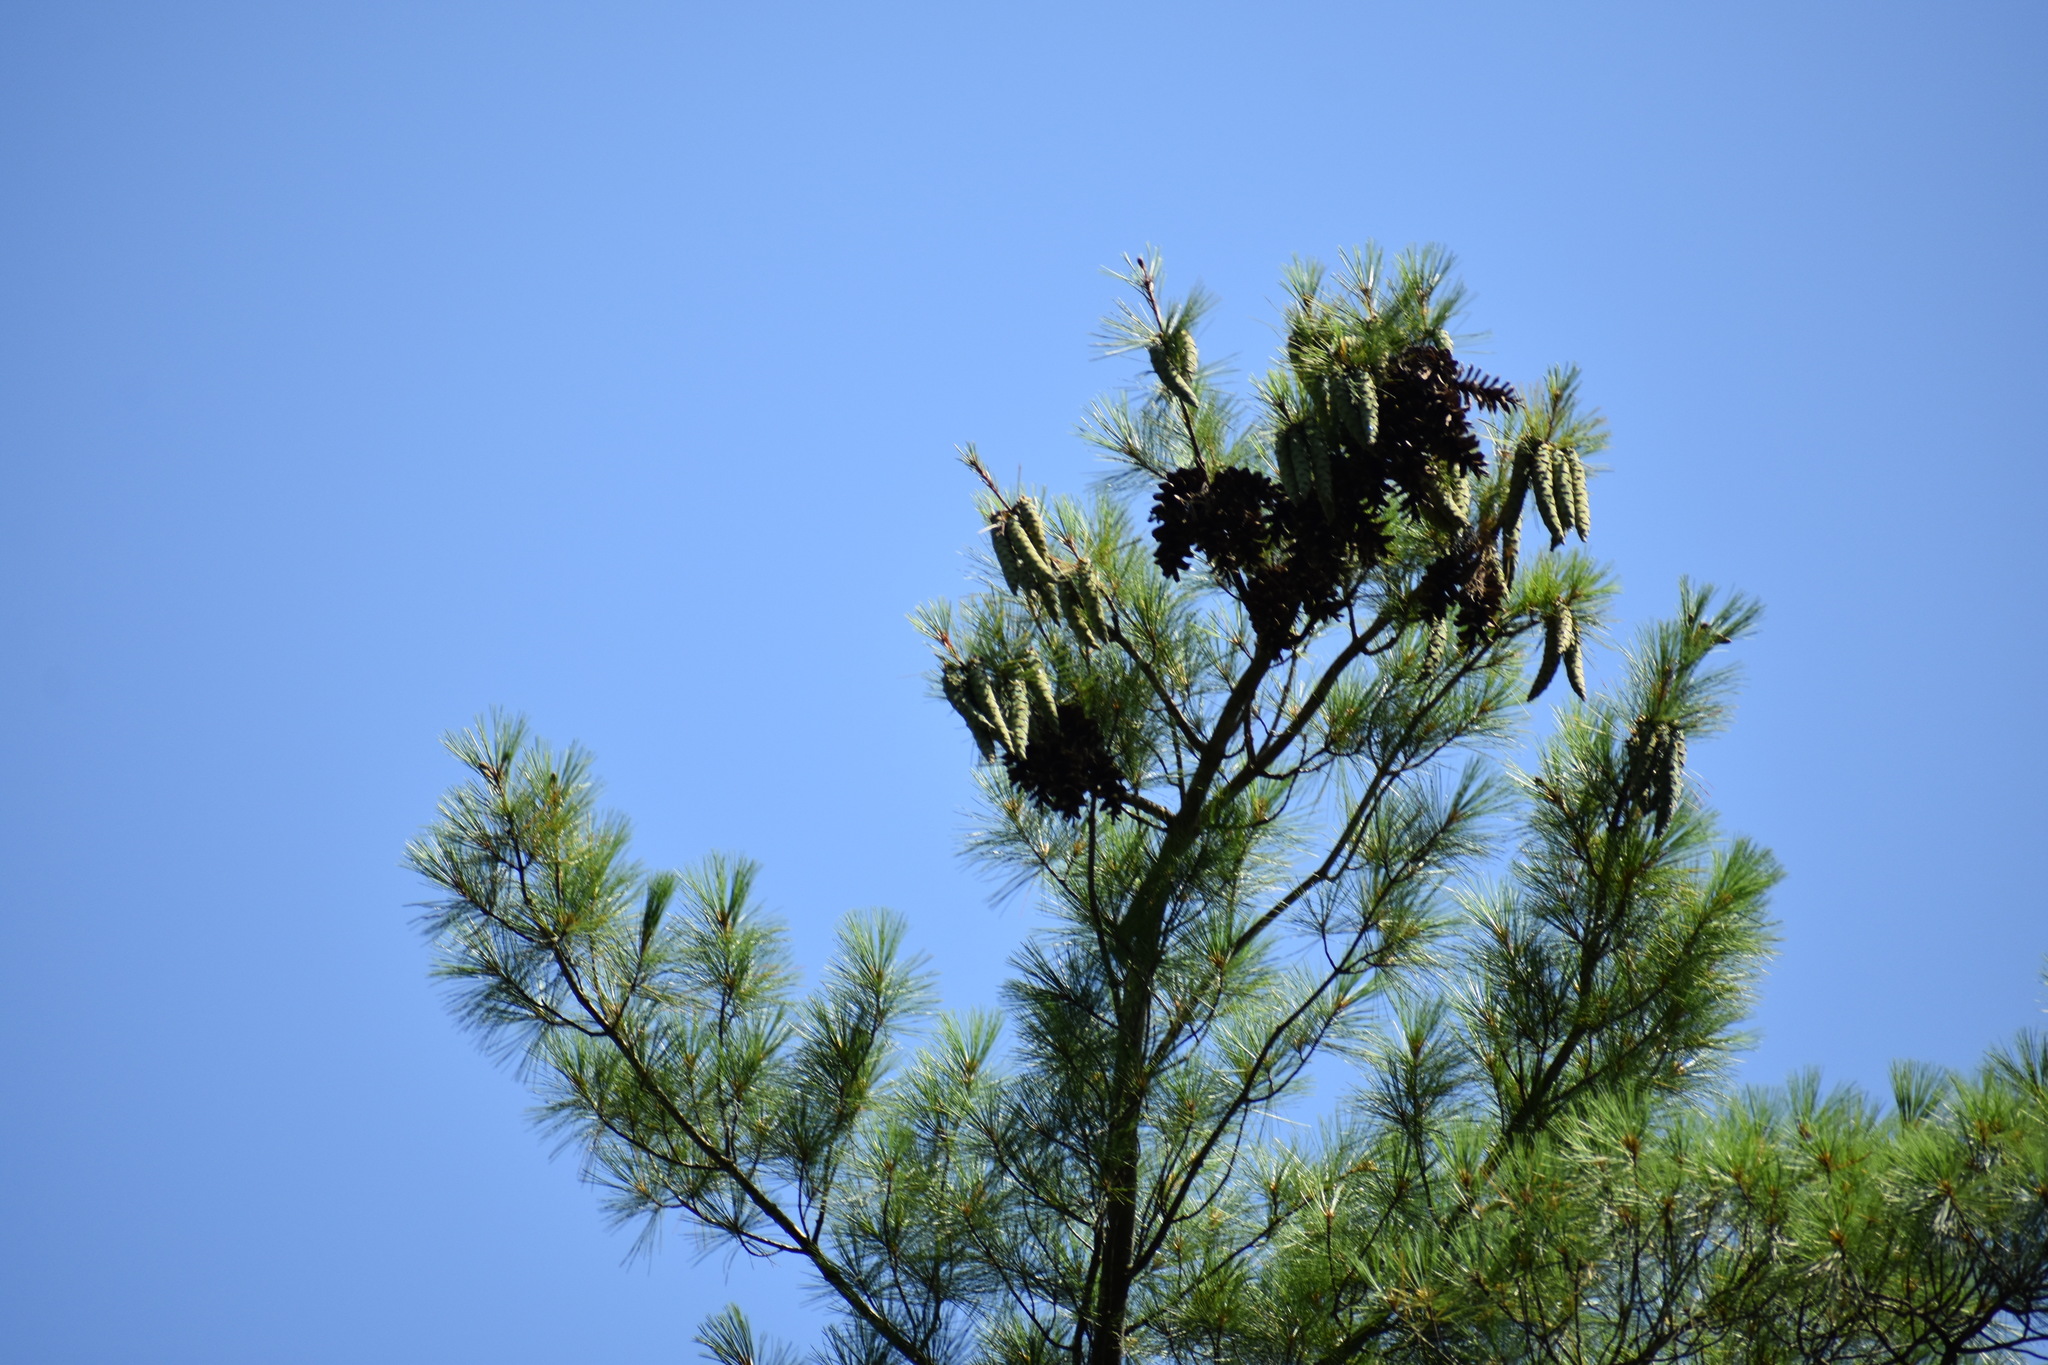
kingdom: Plantae
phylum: Tracheophyta
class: Pinopsida
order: Pinales
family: Pinaceae
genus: Pinus
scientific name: Pinus strobus
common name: Weymouth pine
